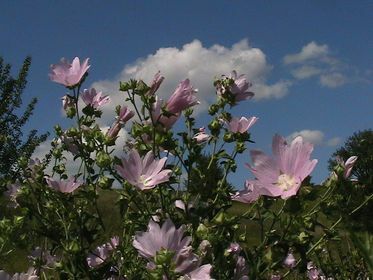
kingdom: Plantae
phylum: Tracheophyta
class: Magnoliopsida
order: Malvales
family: Malvaceae
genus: Malva
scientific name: Malva thuringiaca
